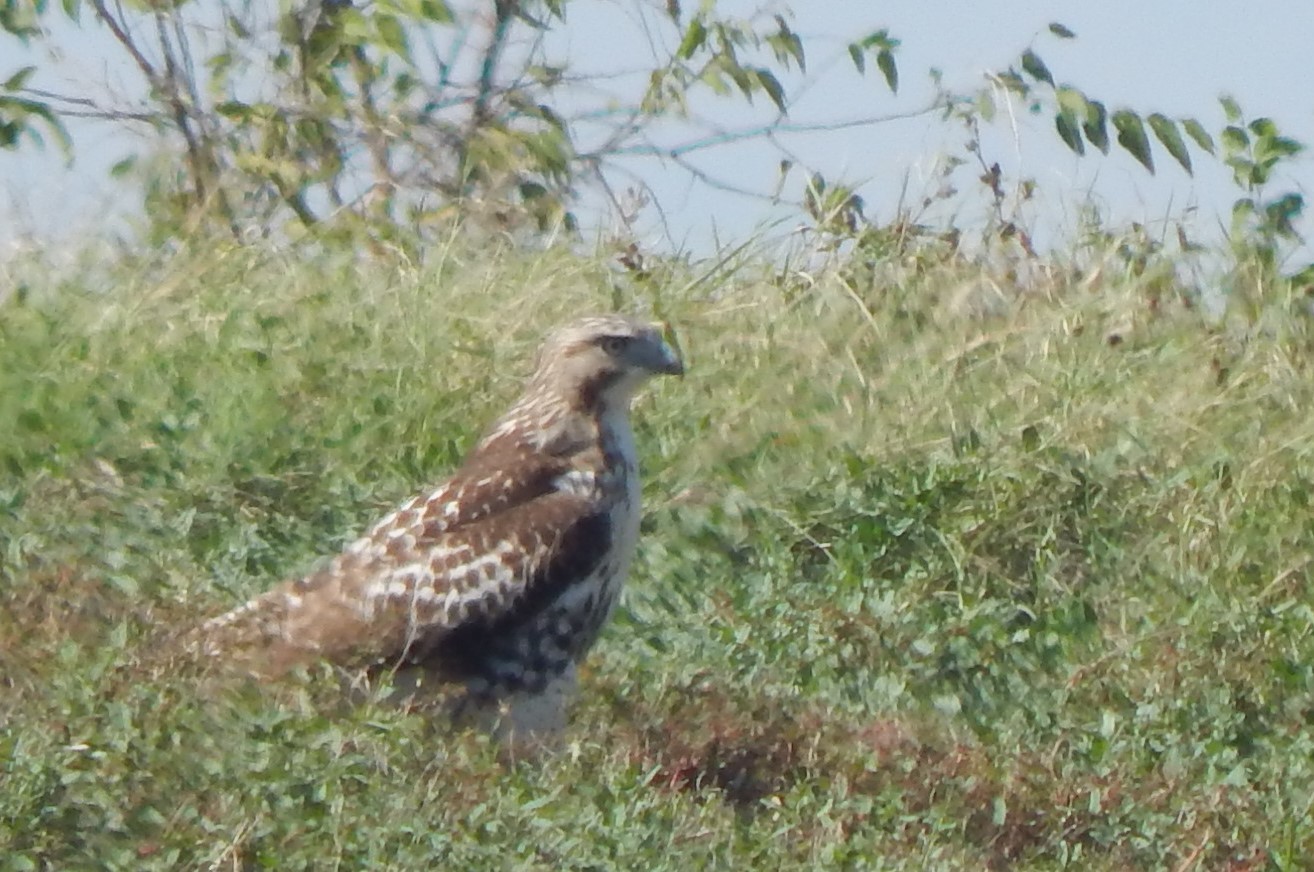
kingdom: Animalia
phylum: Chordata
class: Aves
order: Accipitriformes
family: Accipitridae
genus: Buteo
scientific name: Buteo lineatus
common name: Red-shouldered hawk
